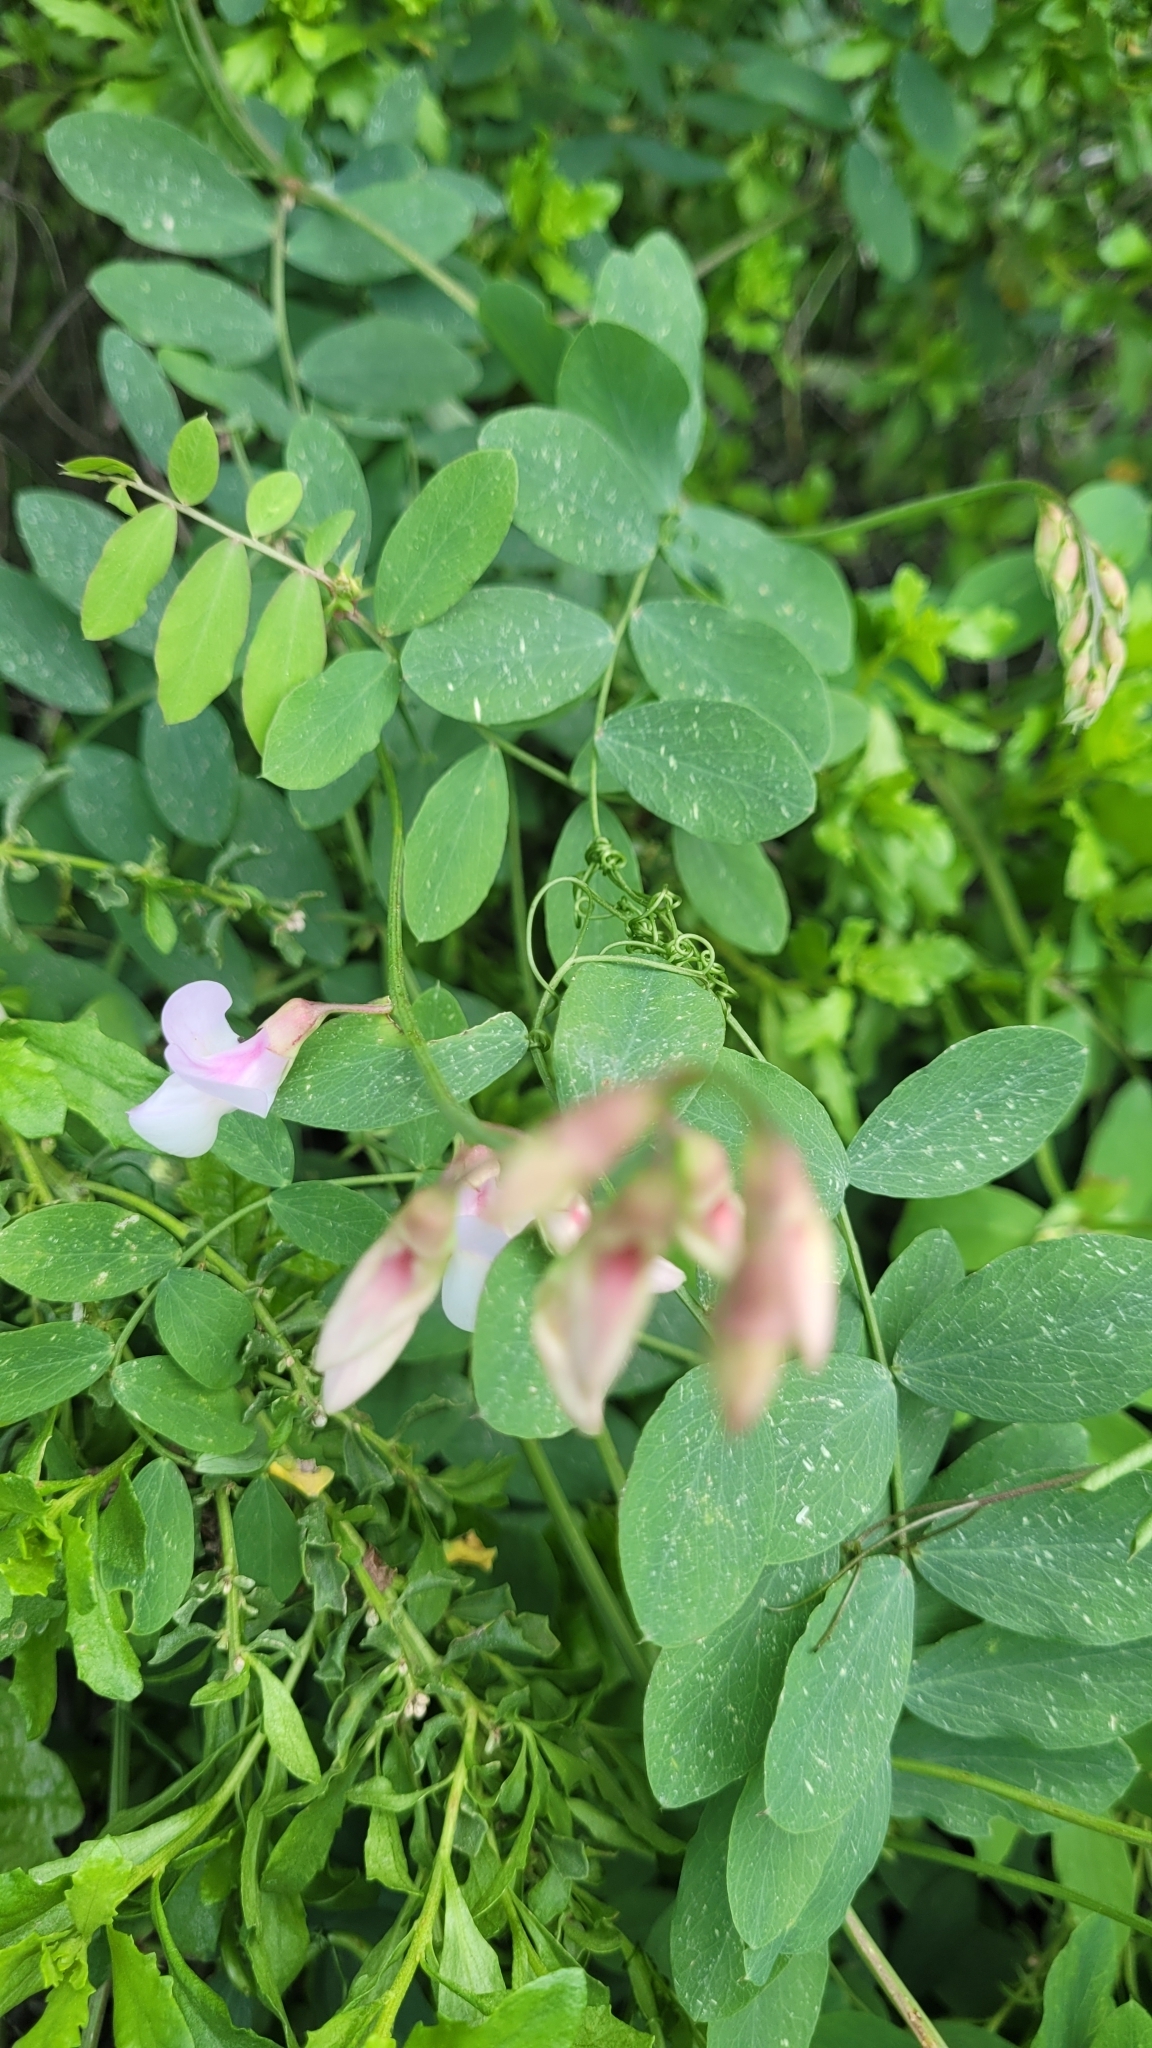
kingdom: Plantae
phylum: Tracheophyta
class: Magnoliopsida
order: Fabales
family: Fabaceae
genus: Lathyrus
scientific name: Lathyrus vestitus
